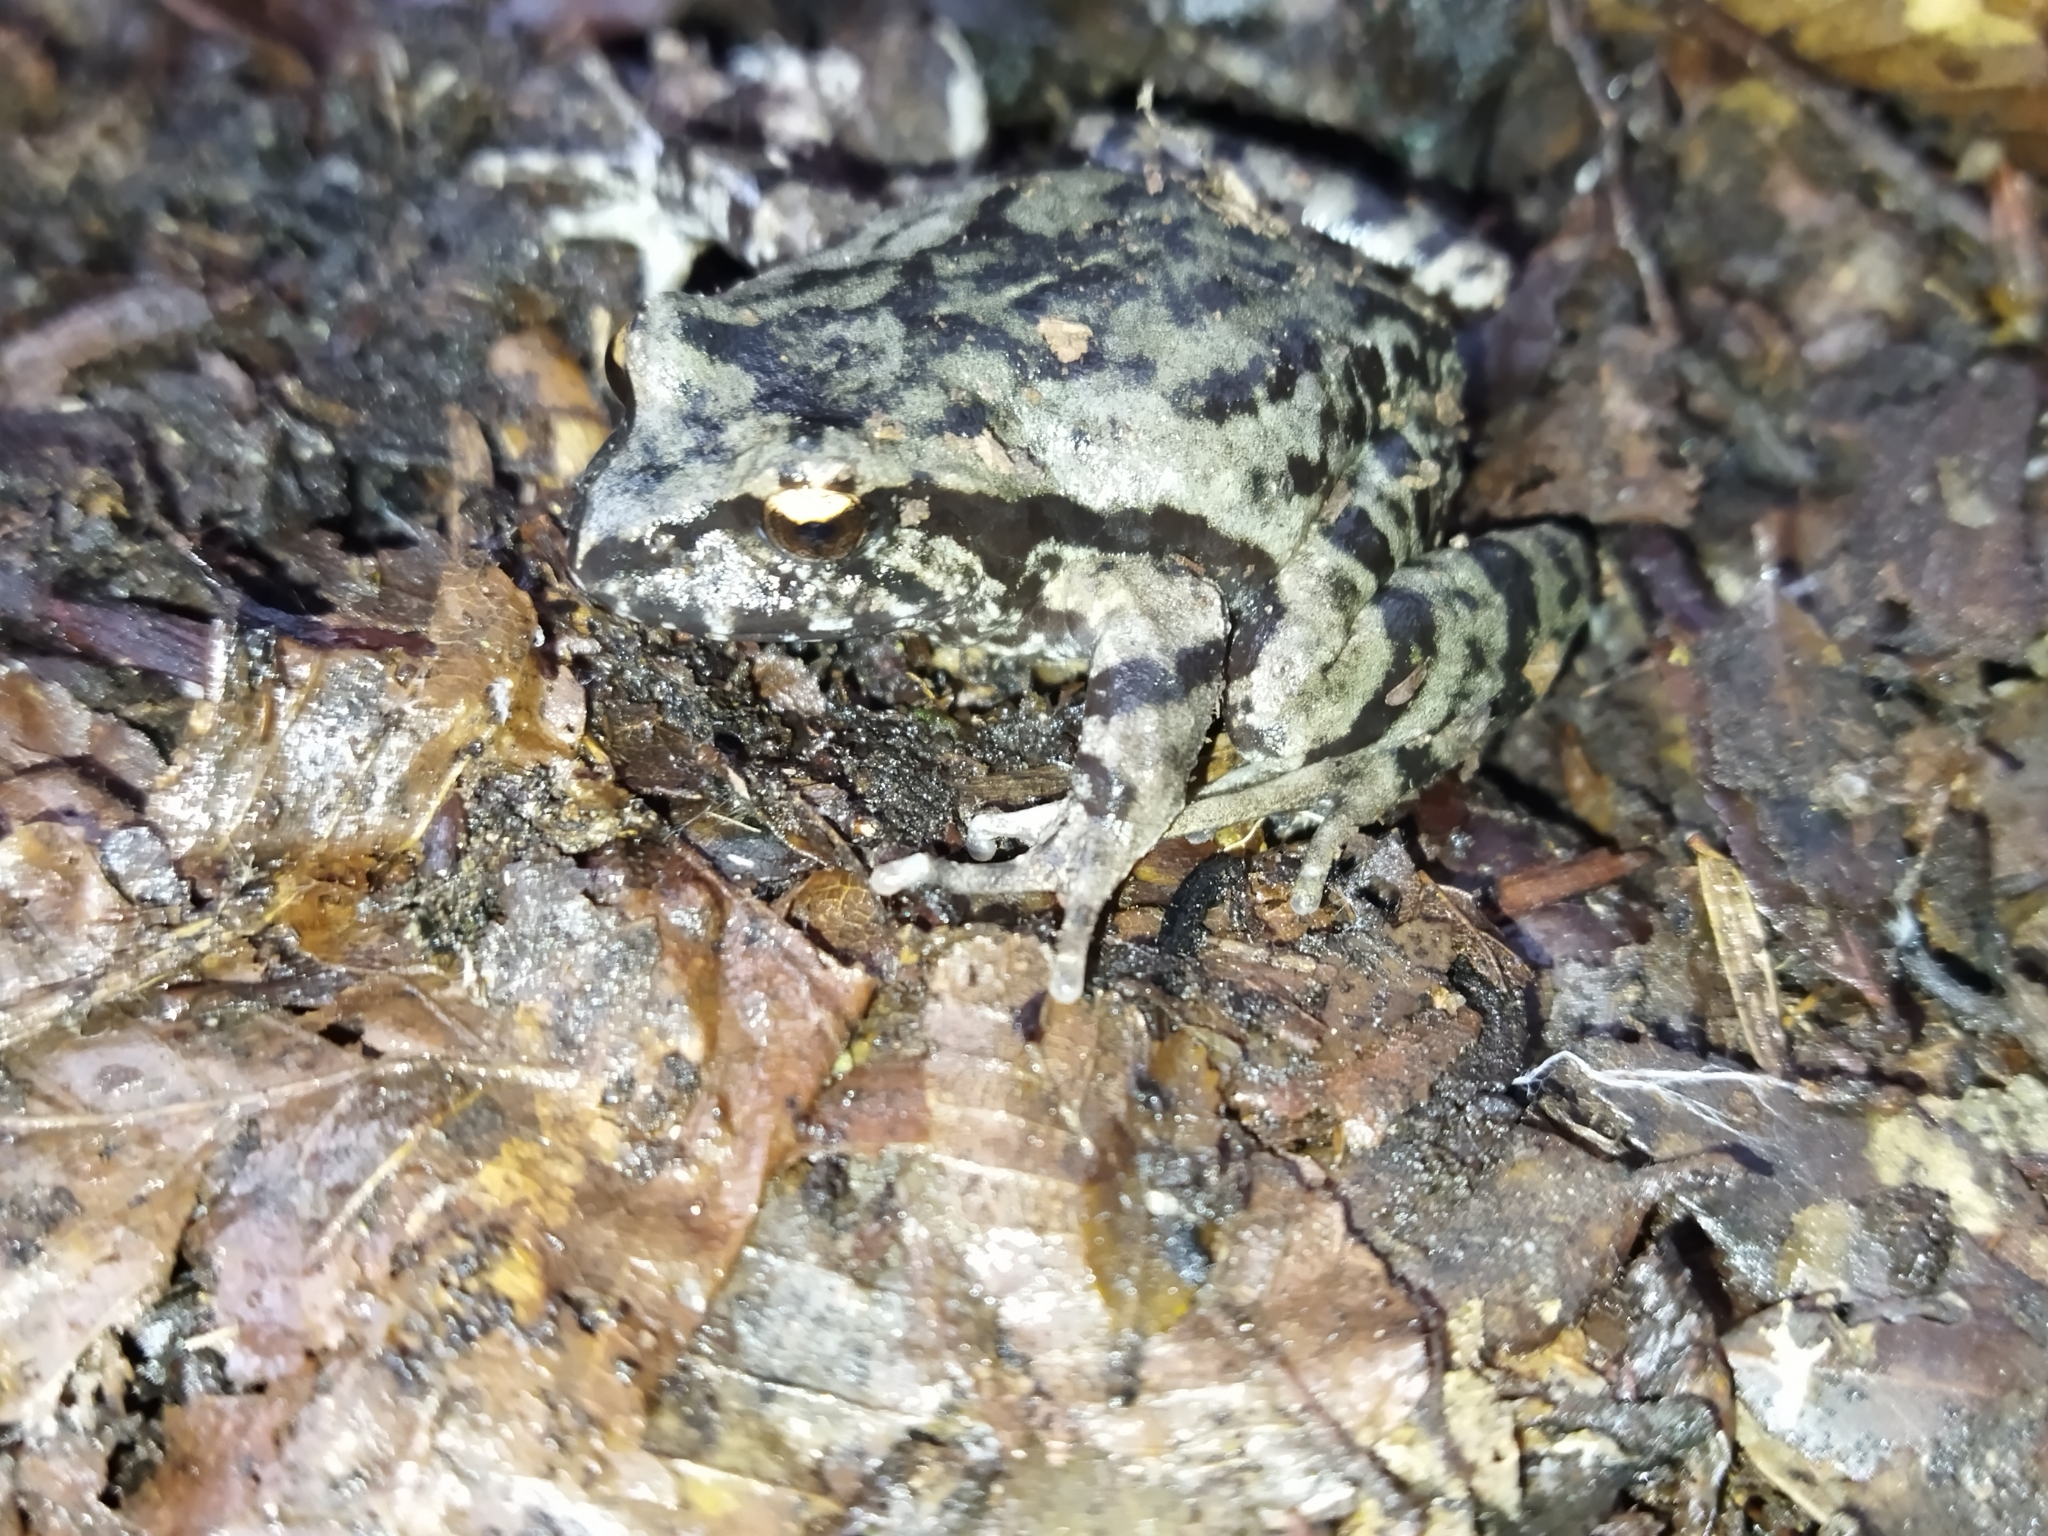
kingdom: Animalia
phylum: Chordata
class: Amphibia
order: Anura
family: Alsodidae
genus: Eupsophus
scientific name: Eupsophus roseus
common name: Rosy ground frog
